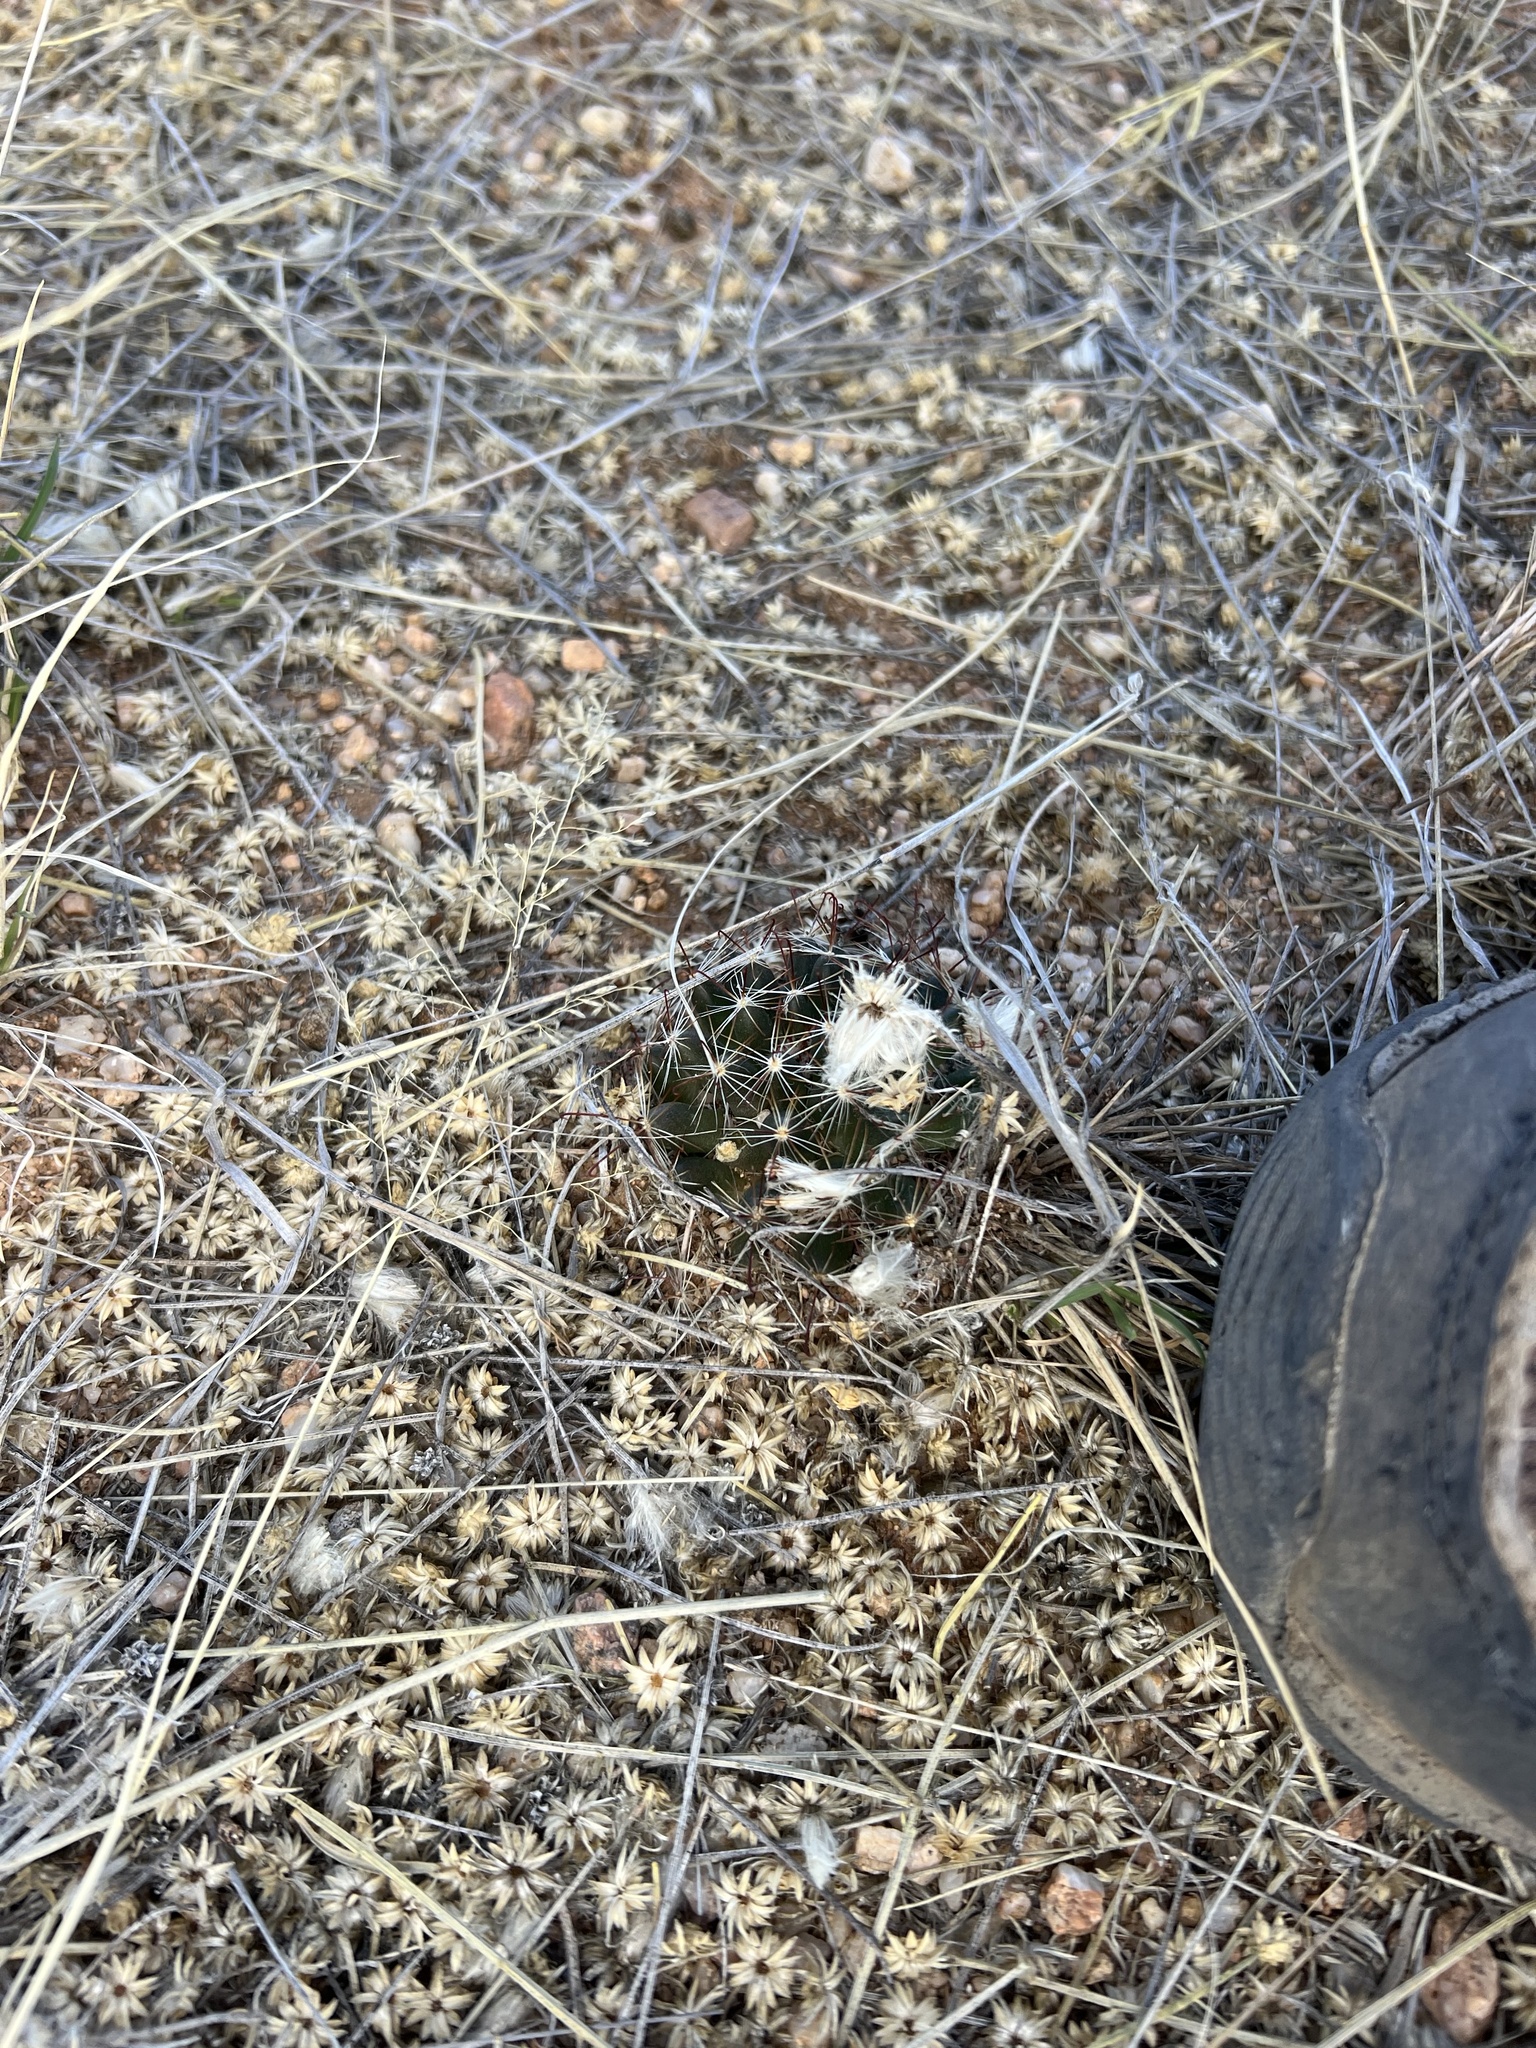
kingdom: Plantae
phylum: Tracheophyta
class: Magnoliopsida
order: Caryophyllales
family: Cactaceae
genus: Cochemiea
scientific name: Cochemiea wrightii
